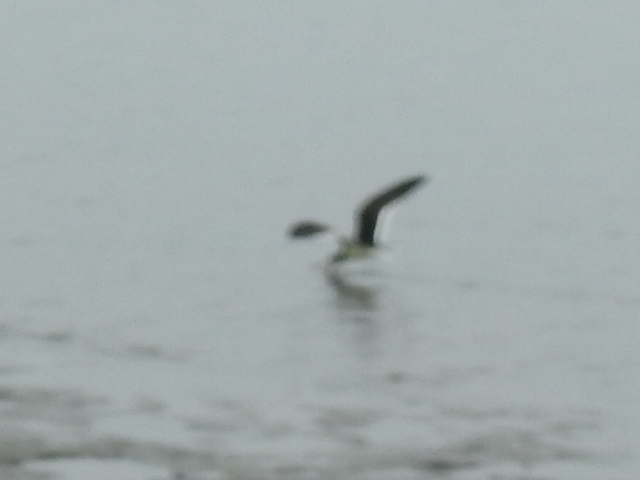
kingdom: Animalia
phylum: Chordata
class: Aves
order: Charadriiformes
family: Laridae
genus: Rynchops
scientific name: Rynchops niger
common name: Black skimmer
